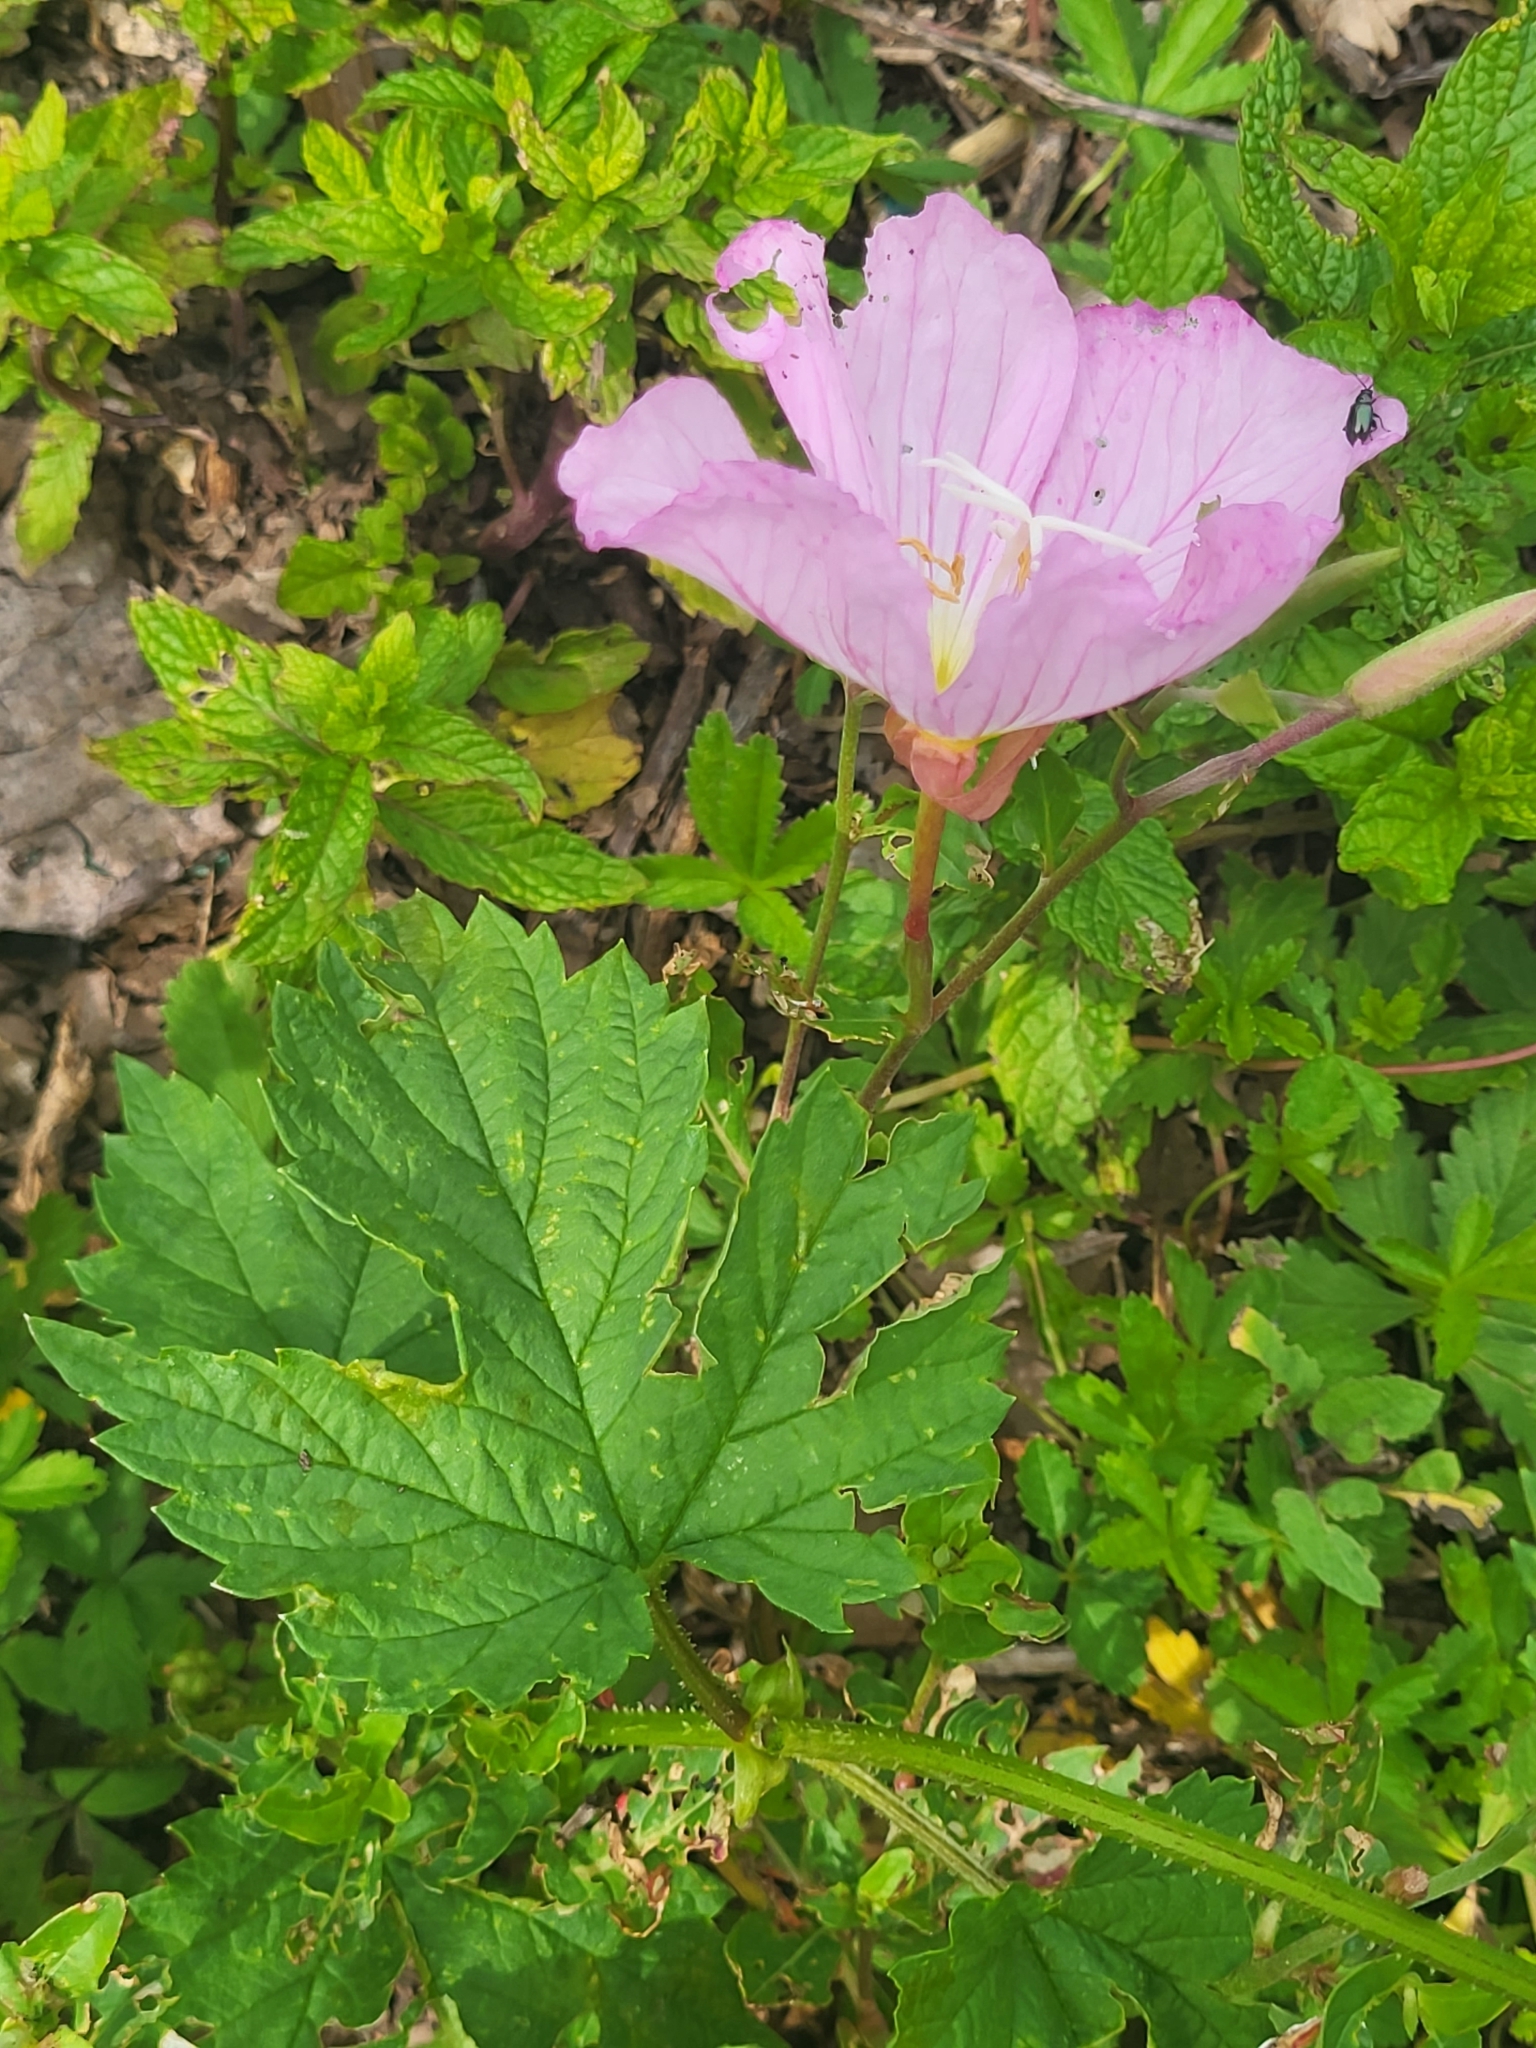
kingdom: Plantae
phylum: Tracheophyta
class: Magnoliopsida
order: Myrtales
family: Onagraceae
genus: Oenothera
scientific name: Oenothera speciosa
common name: White evening-primrose
